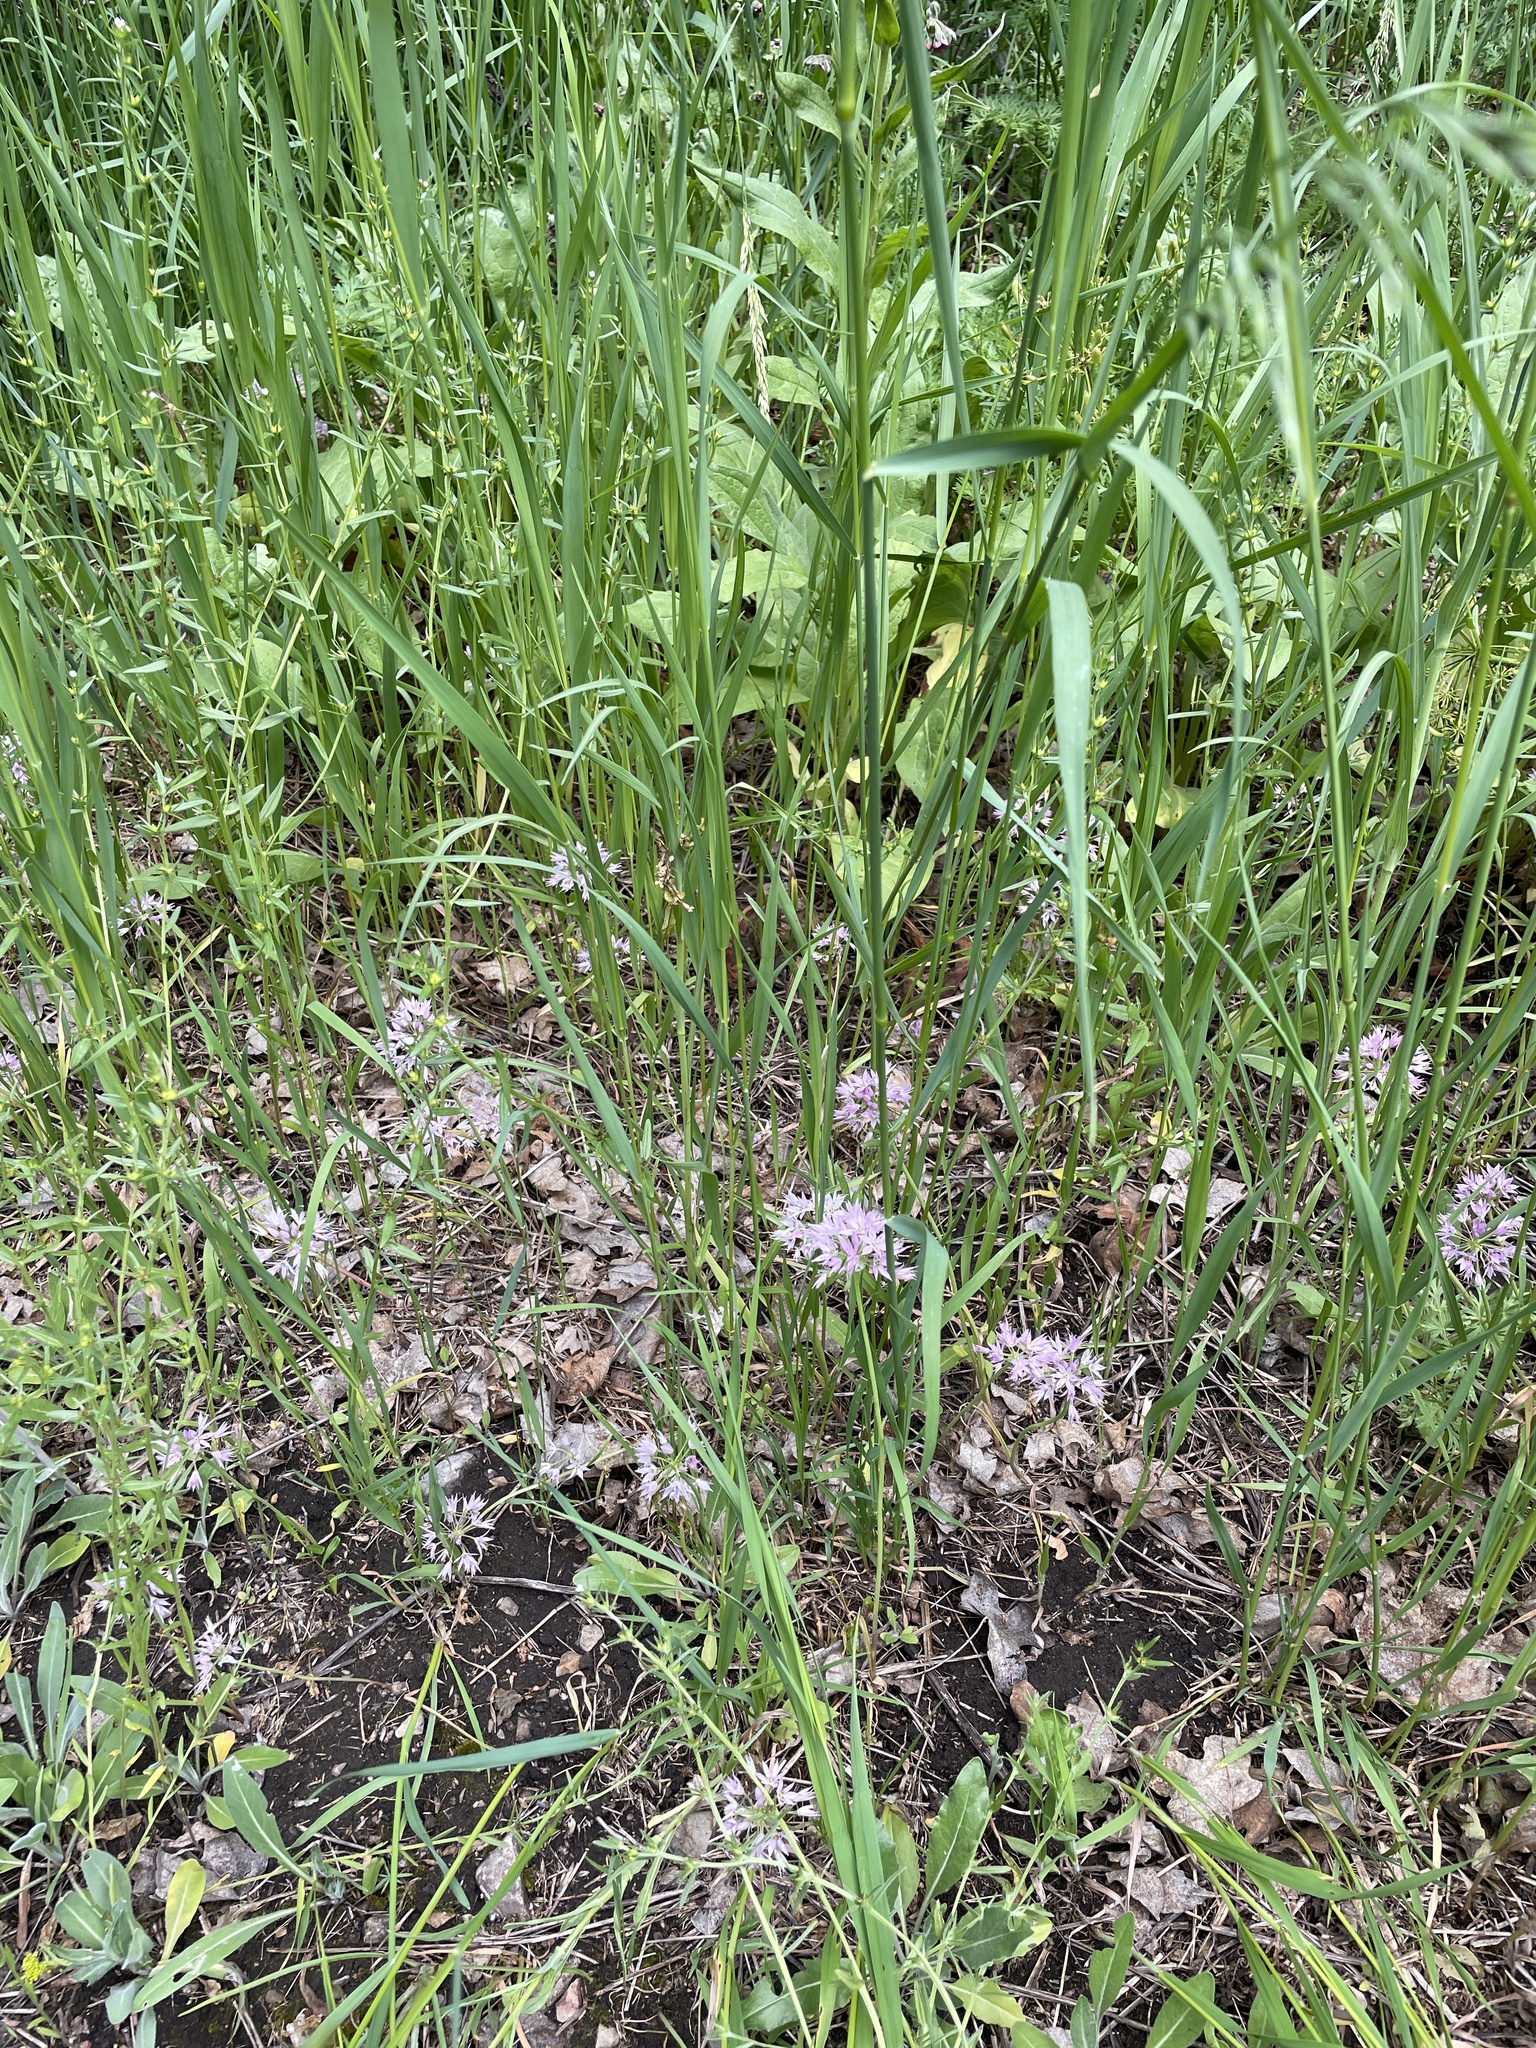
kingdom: Plantae
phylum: Tracheophyta
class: Liliopsida
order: Asparagales
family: Amaryllidaceae
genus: Allium
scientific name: Allium bisceptrum
